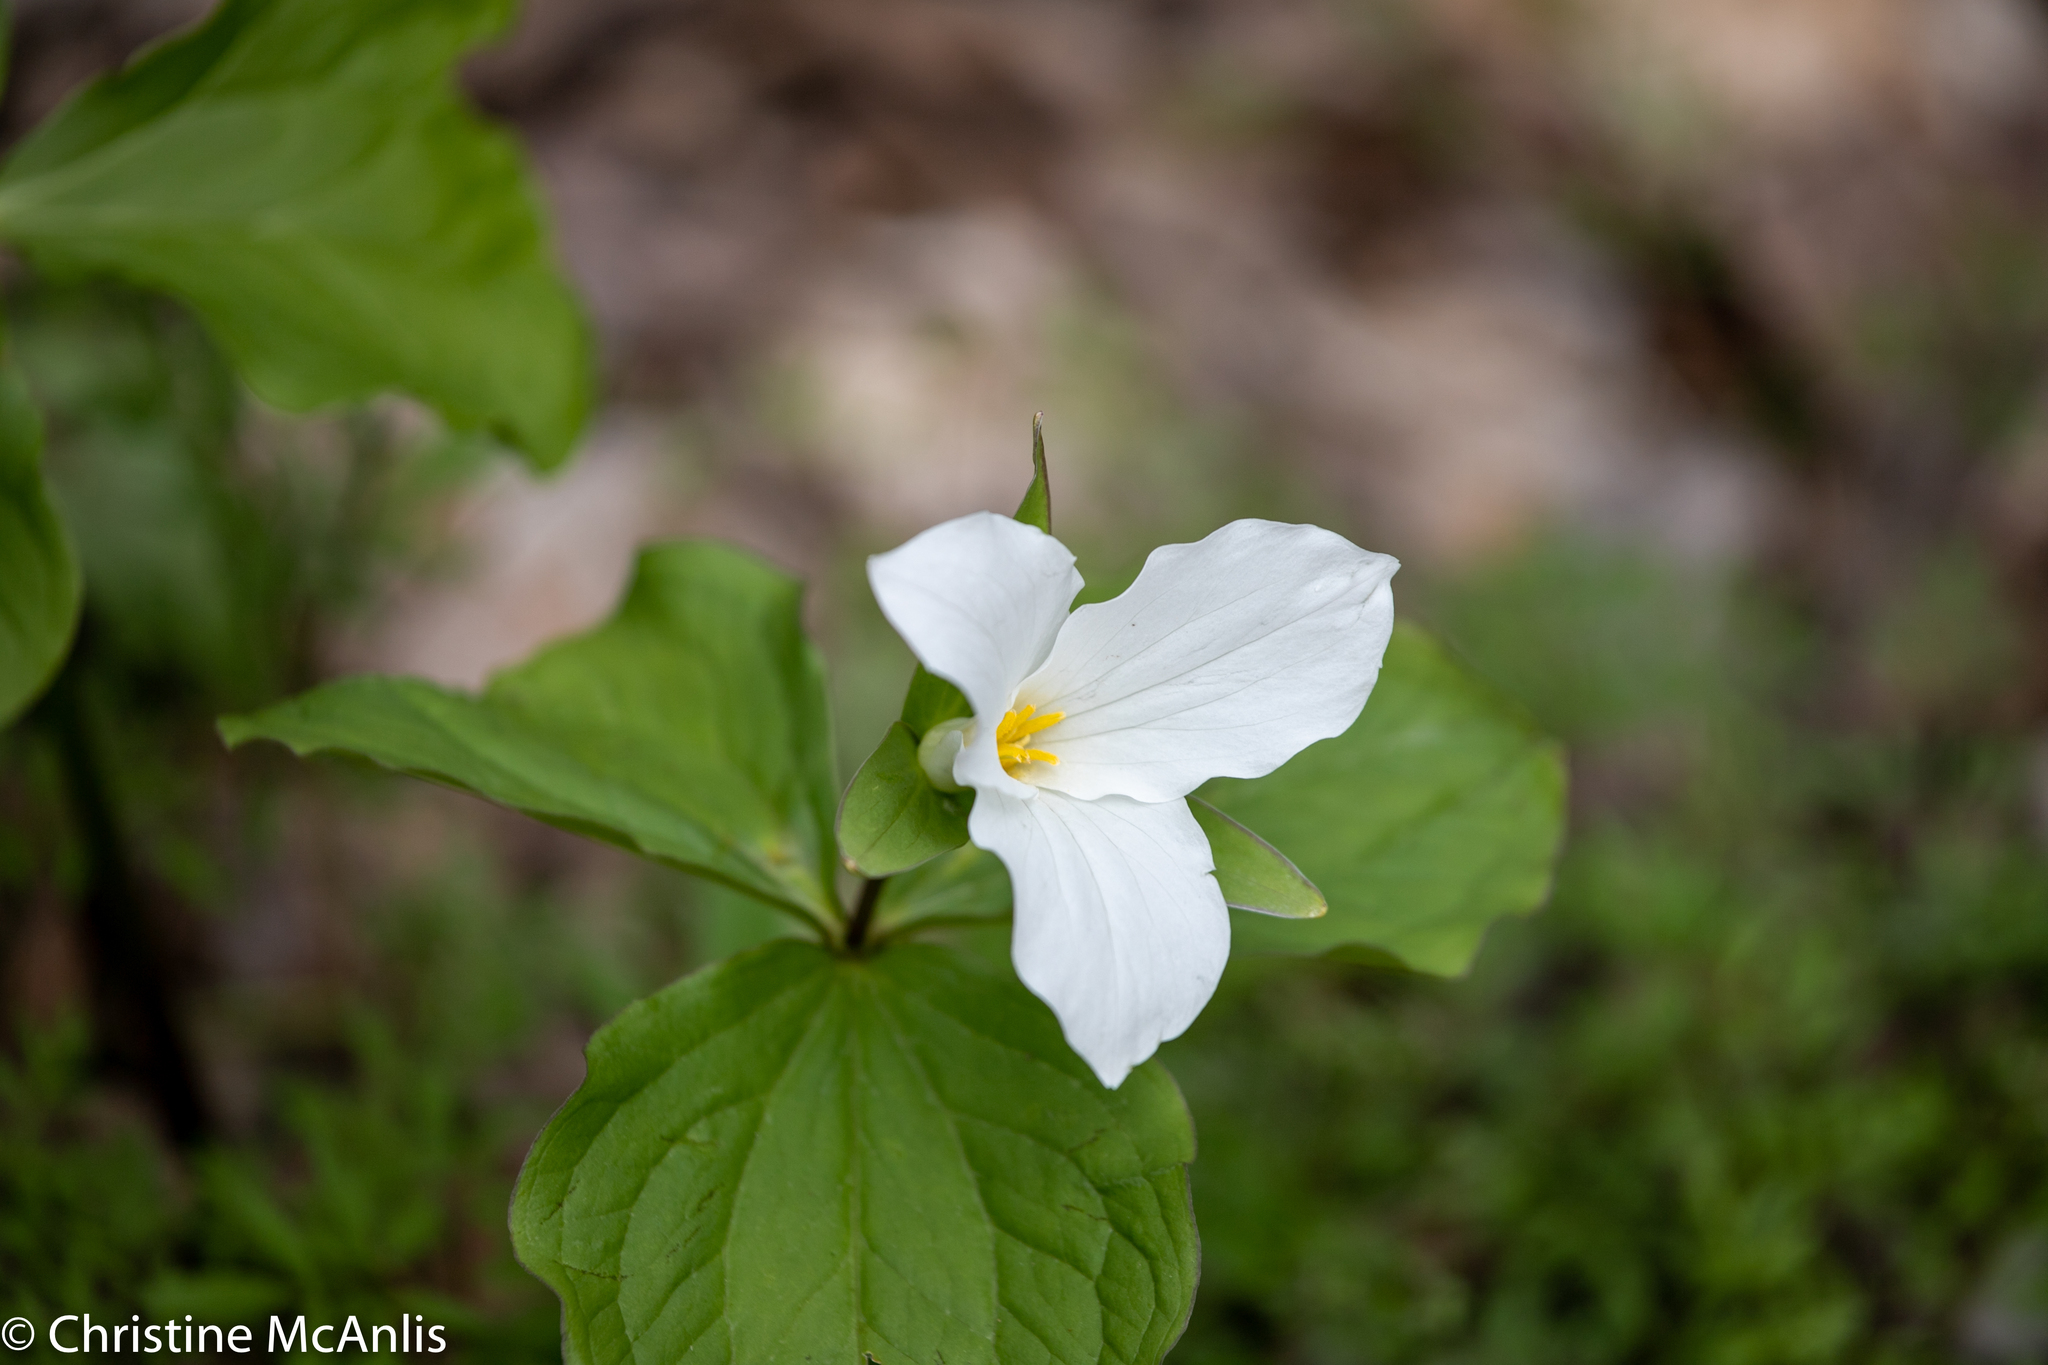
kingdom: Plantae
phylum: Tracheophyta
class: Liliopsida
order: Liliales
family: Melanthiaceae
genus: Trillium
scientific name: Trillium grandiflorum
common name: Great white trillium
